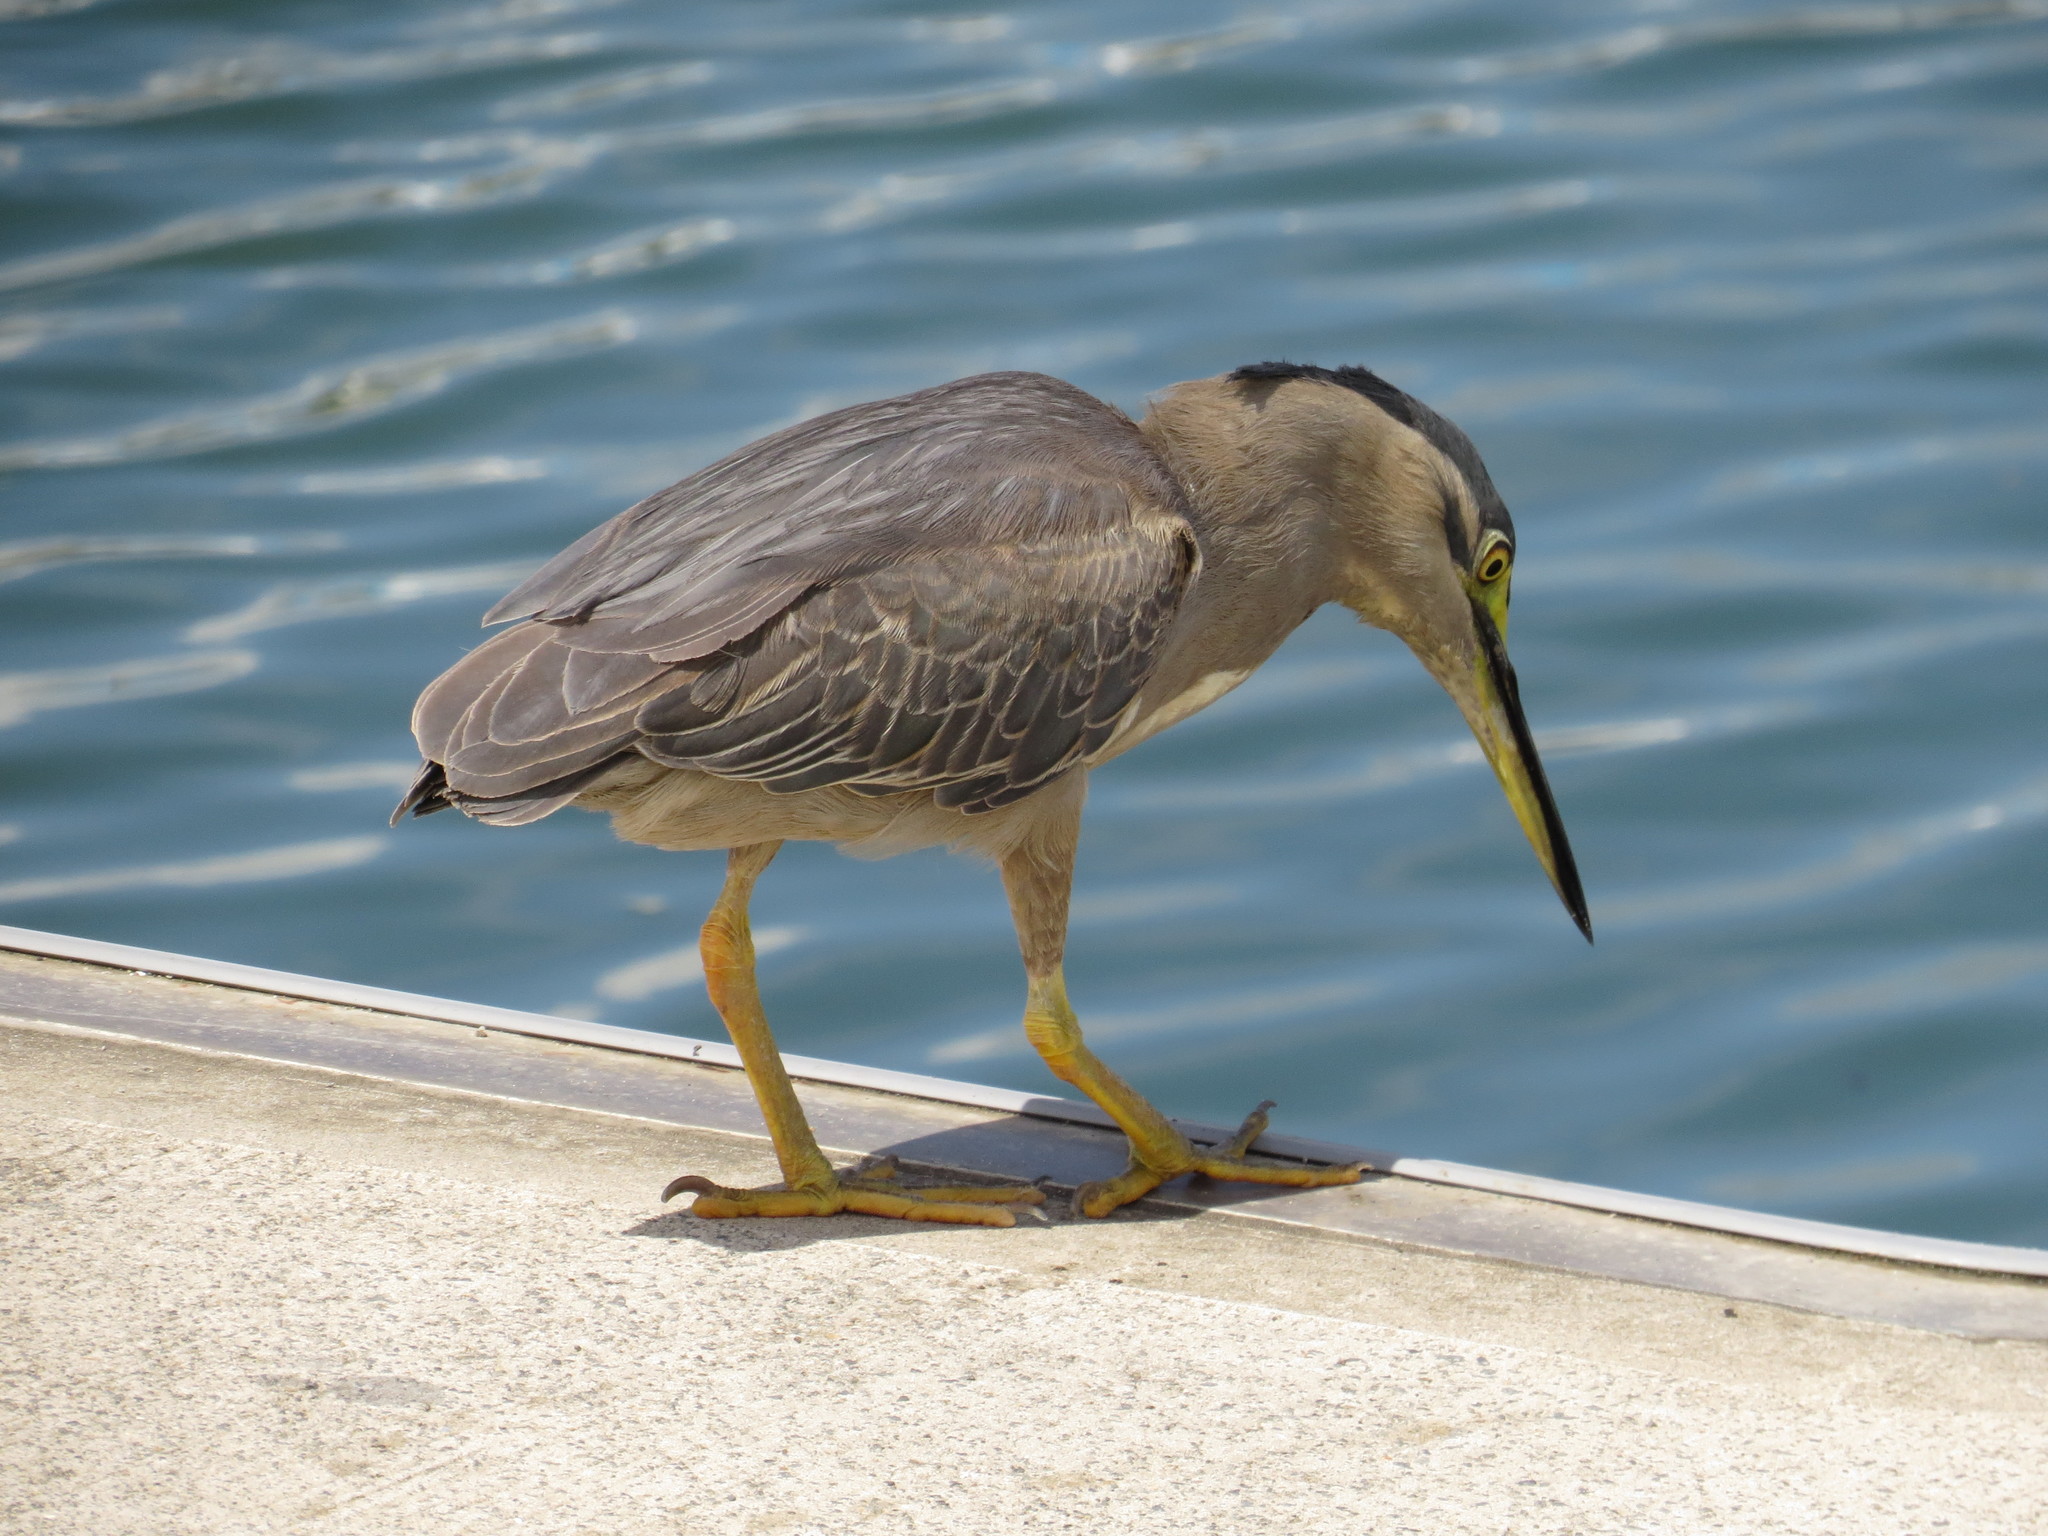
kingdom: Animalia
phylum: Chordata
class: Aves
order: Pelecaniformes
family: Ardeidae
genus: Butorides
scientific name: Butorides striata
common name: Striated heron
